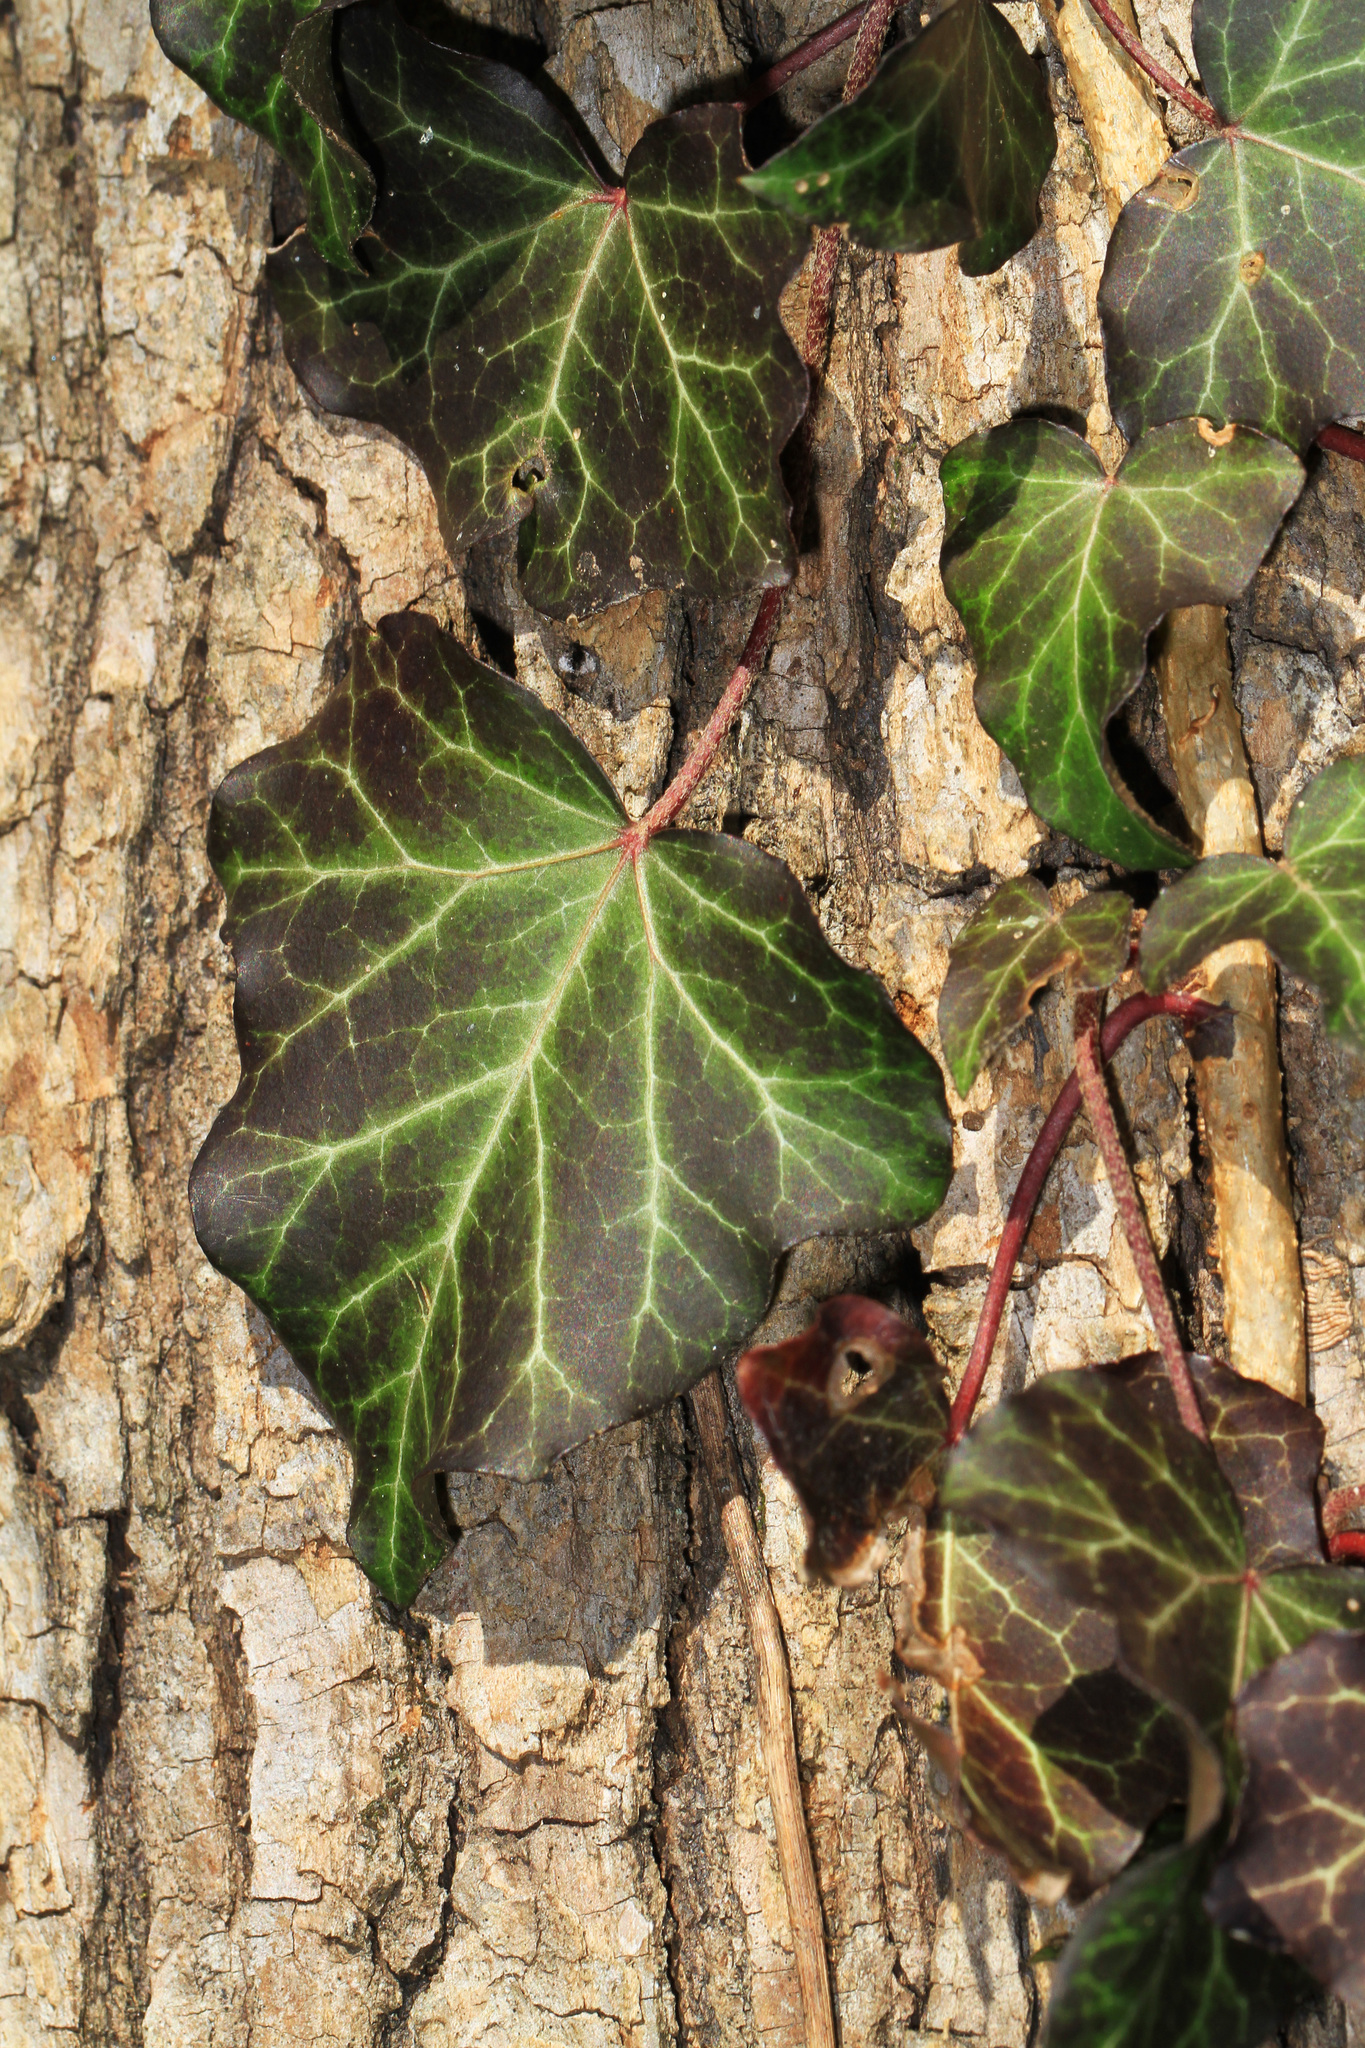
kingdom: Plantae
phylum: Tracheophyta
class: Magnoliopsida
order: Apiales
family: Araliaceae
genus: Hedera
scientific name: Hedera helix
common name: Ivy
